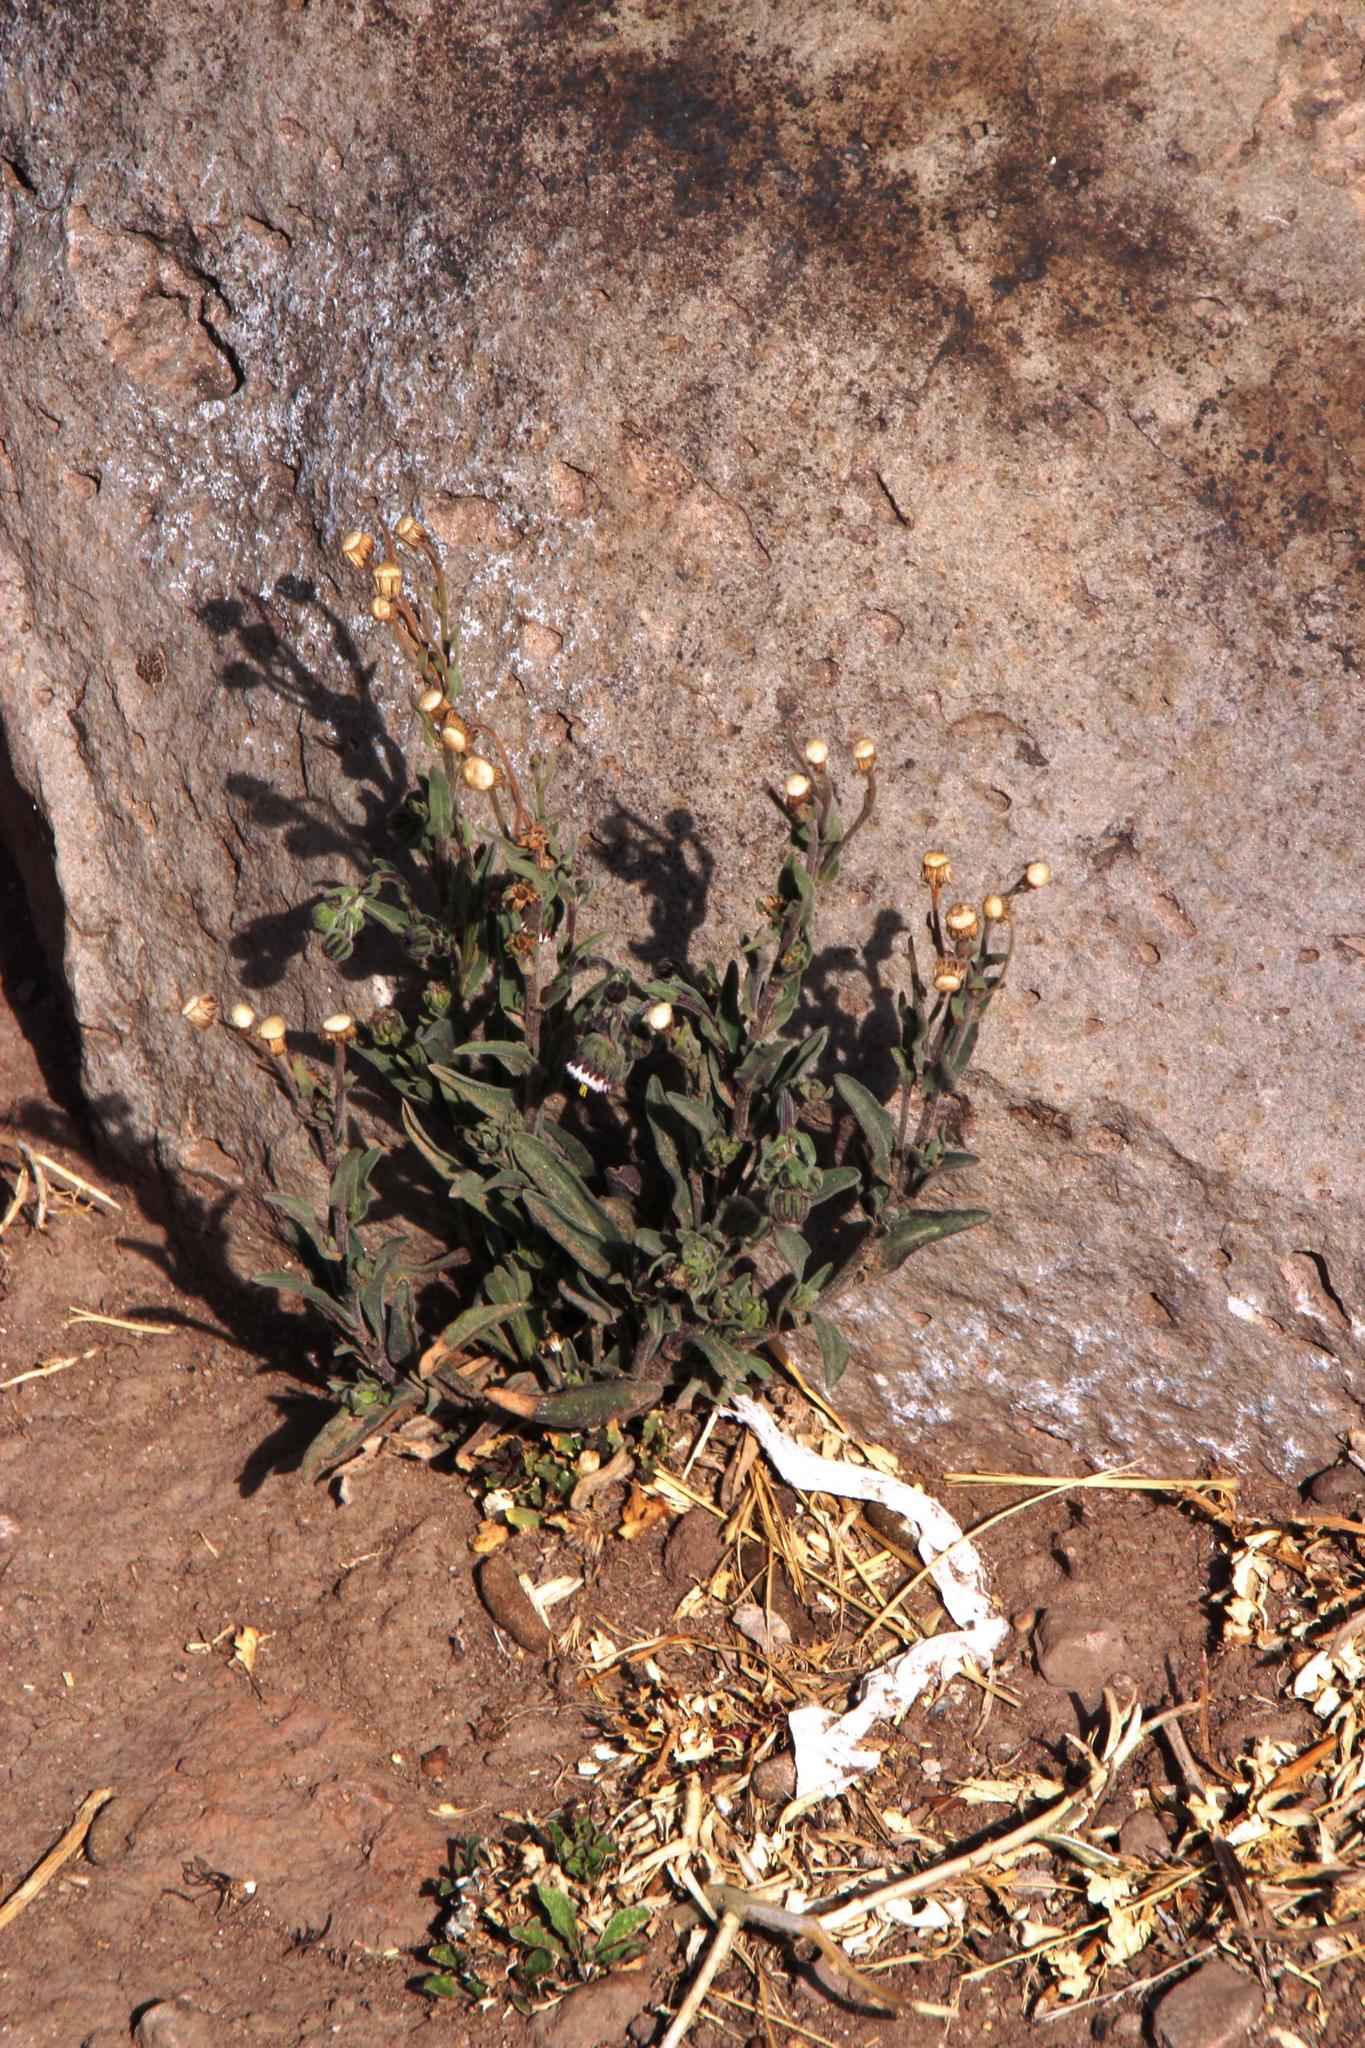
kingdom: Plantae
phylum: Tracheophyta
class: Magnoliopsida
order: Asterales
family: Asteraceae
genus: Erigeron
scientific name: Erigeron deserticolus
